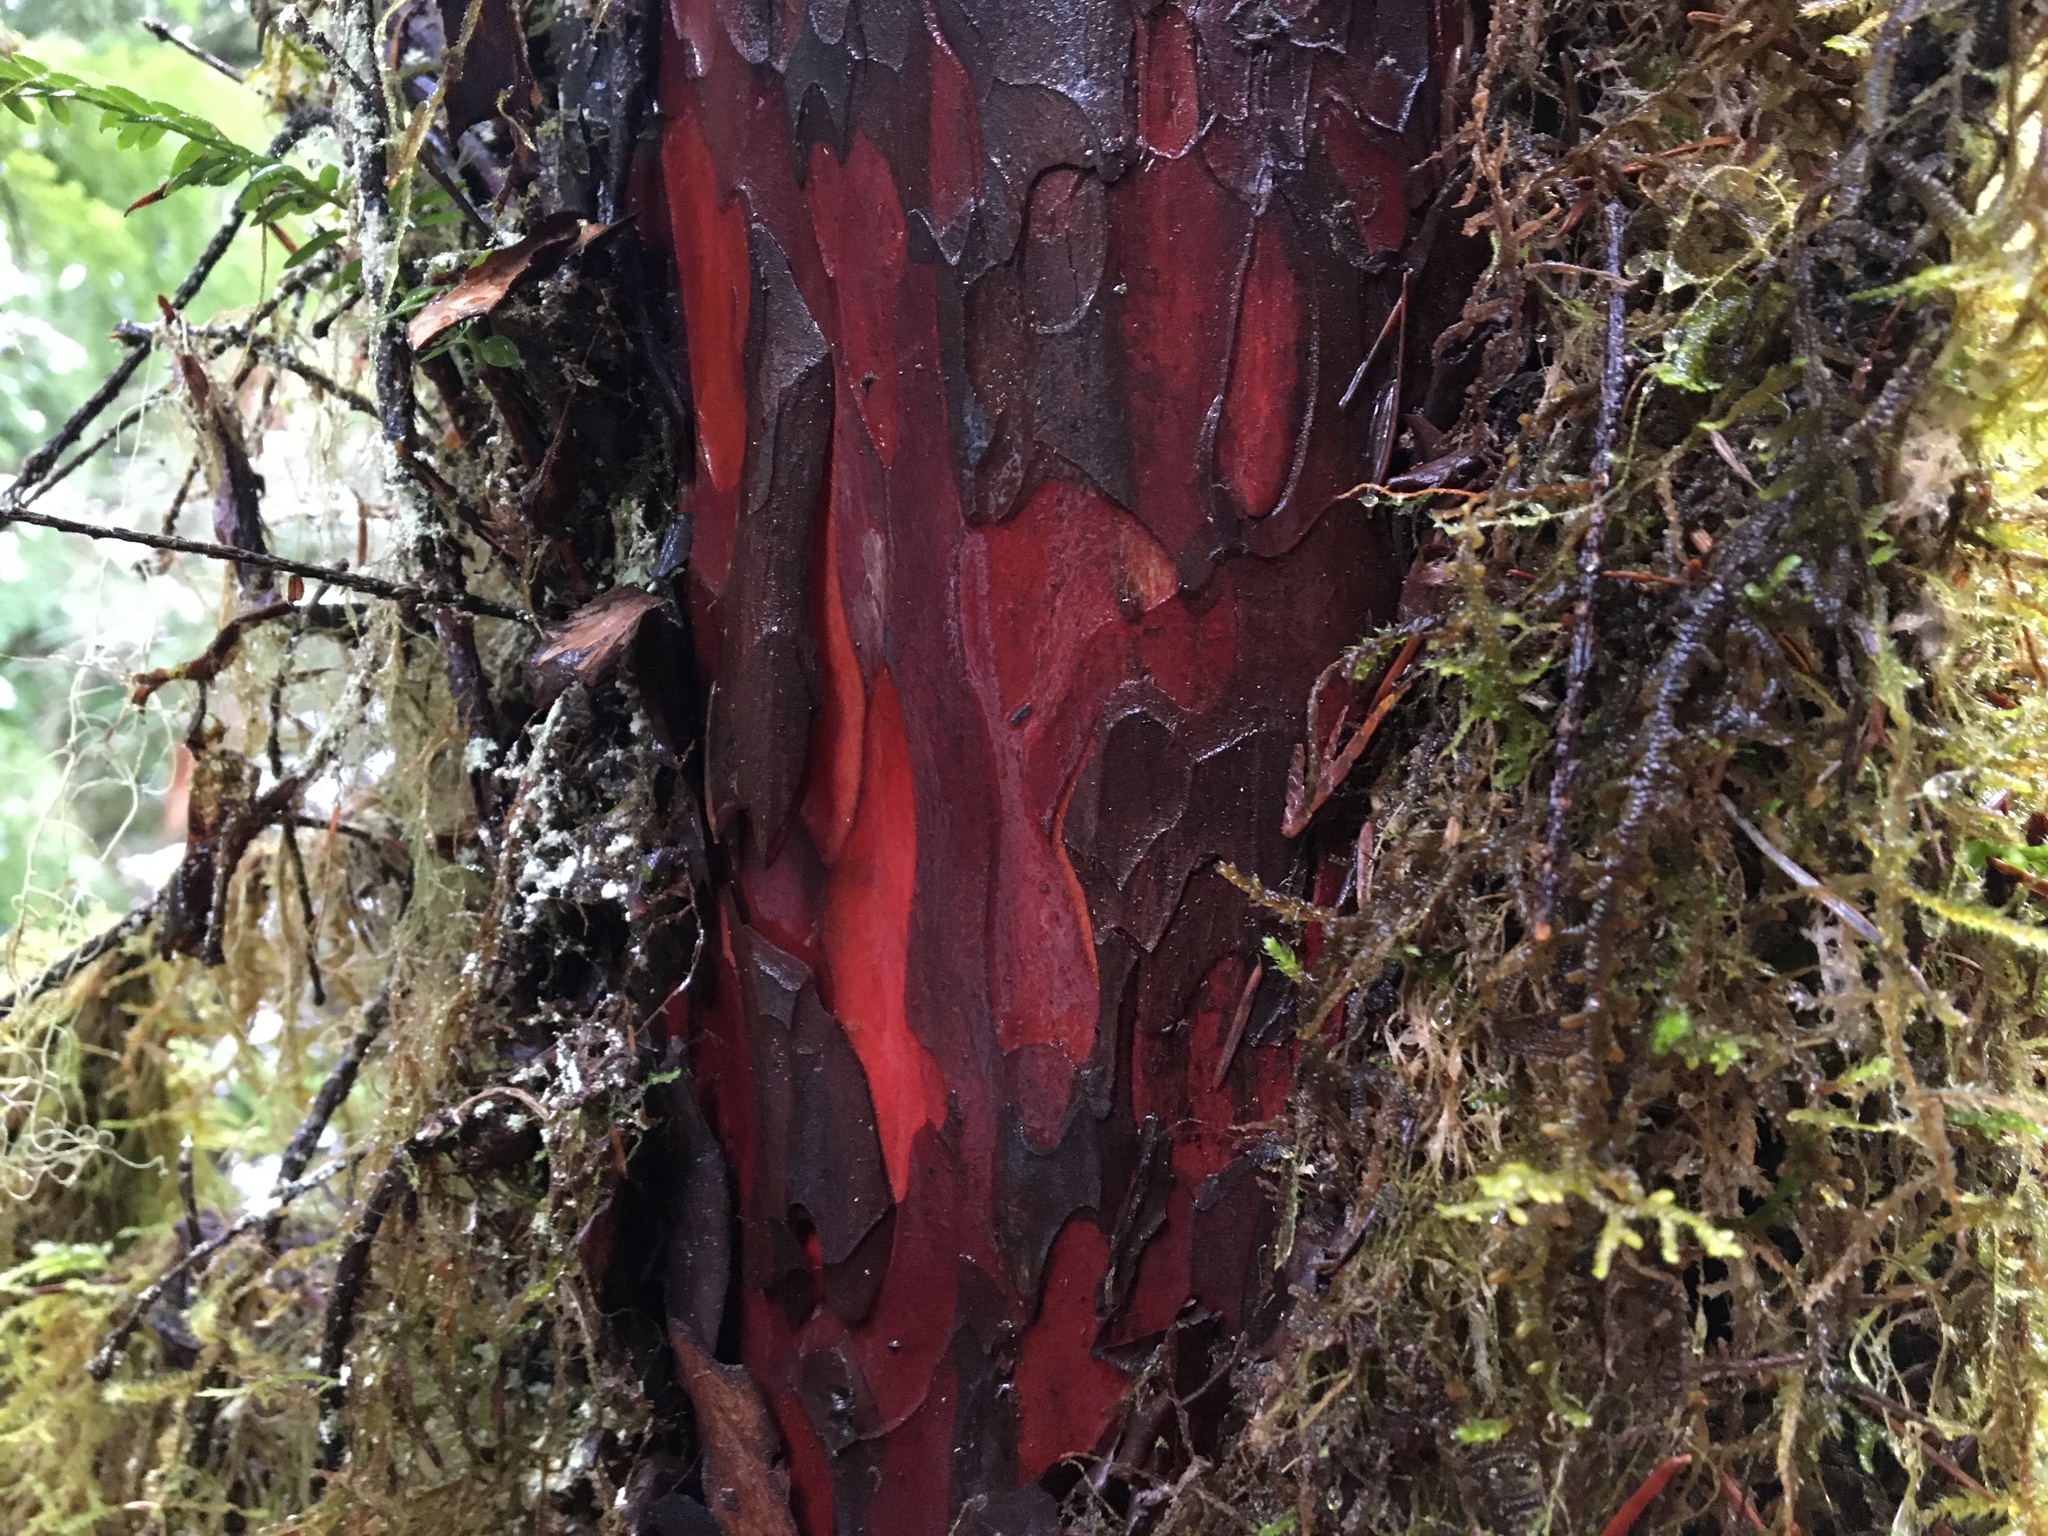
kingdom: Plantae
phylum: Tracheophyta
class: Pinopsida
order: Pinales
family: Taxaceae
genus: Taxus
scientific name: Taxus brevifolia
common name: Pacific yew
